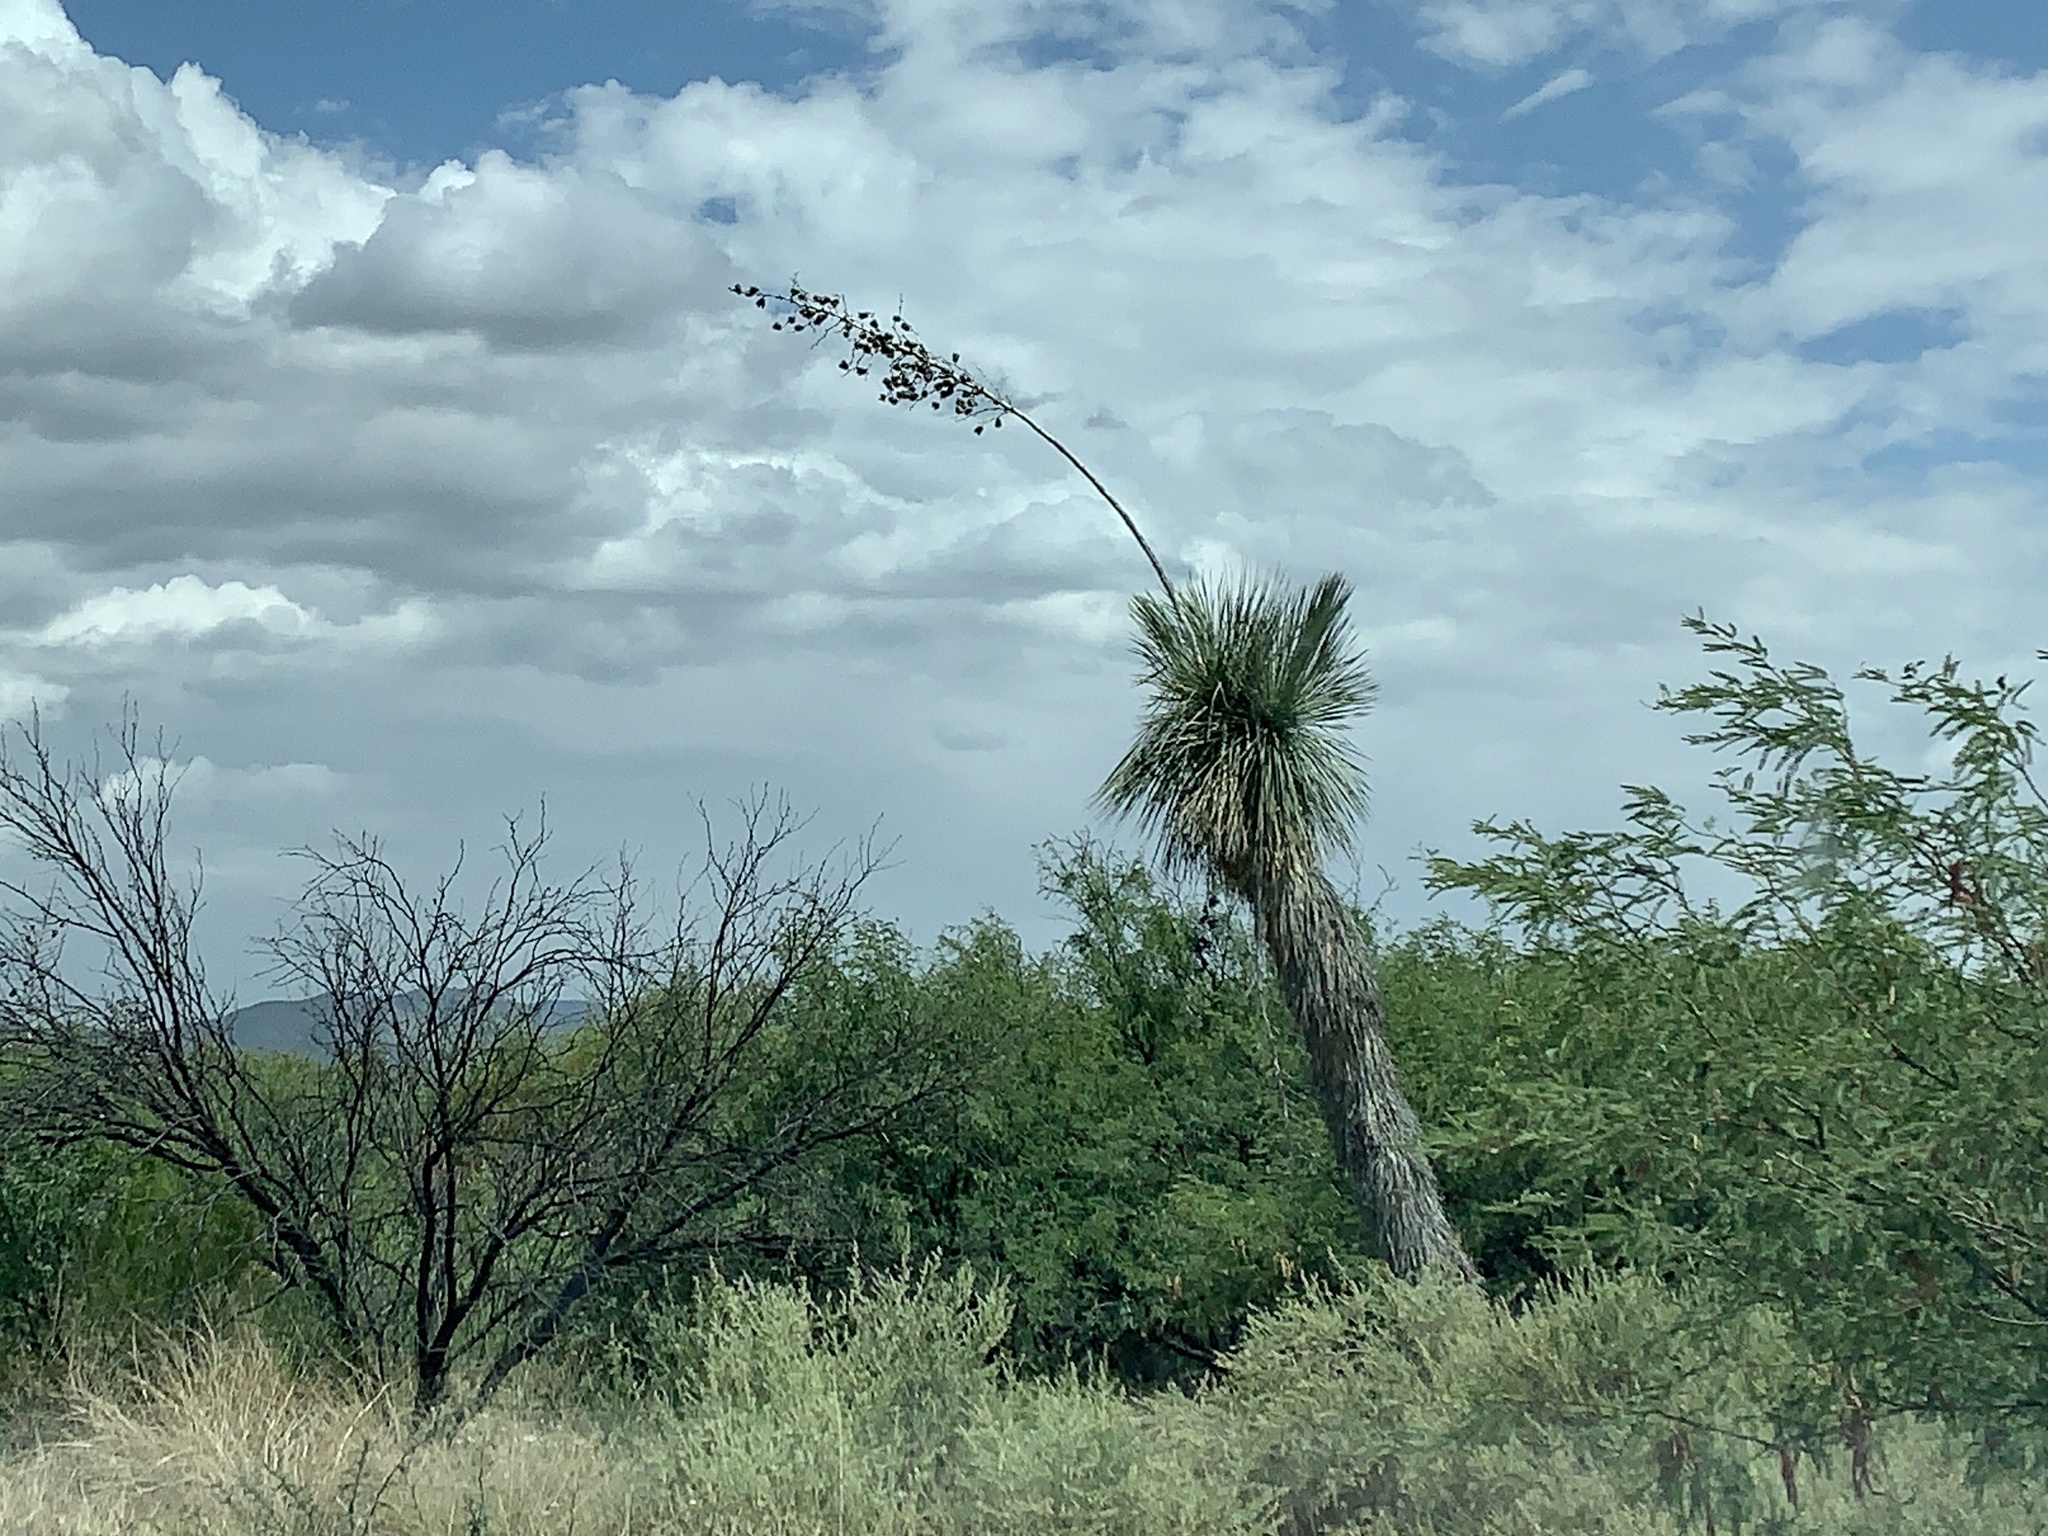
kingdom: Plantae
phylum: Tracheophyta
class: Liliopsida
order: Asparagales
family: Asparagaceae
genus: Yucca
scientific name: Yucca elata
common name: Palmella
